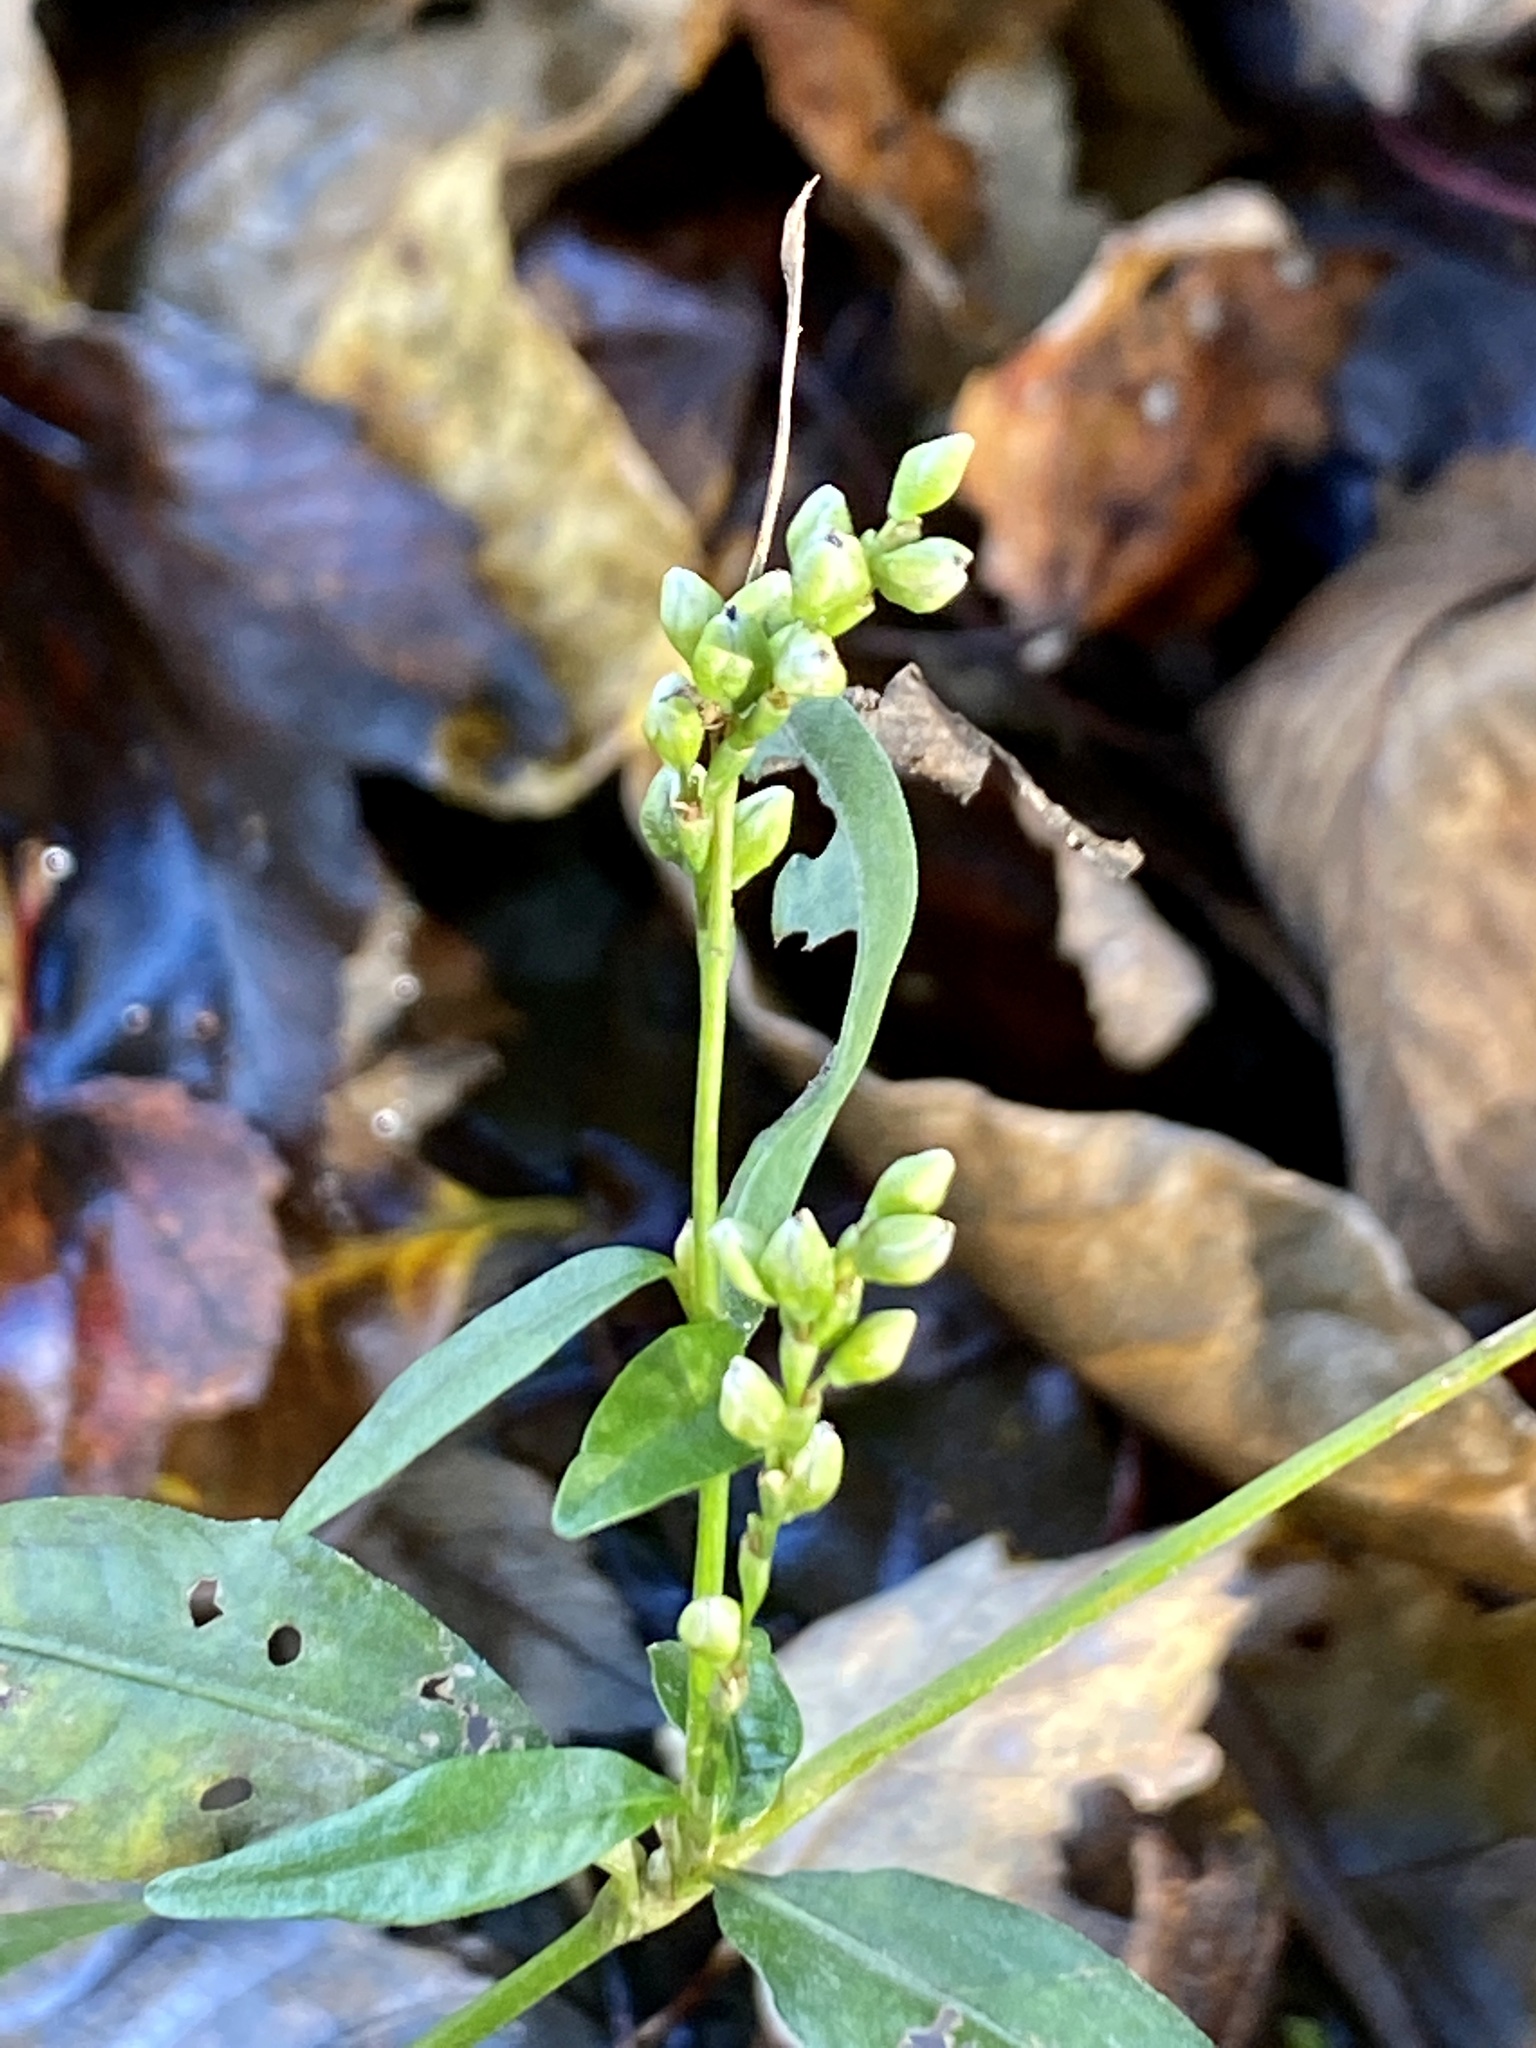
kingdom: Plantae
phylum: Tracheophyta
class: Magnoliopsida
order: Caryophyllales
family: Polygonaceae
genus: Persicaria
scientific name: Persicaria punctata
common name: Dotted smartweed
